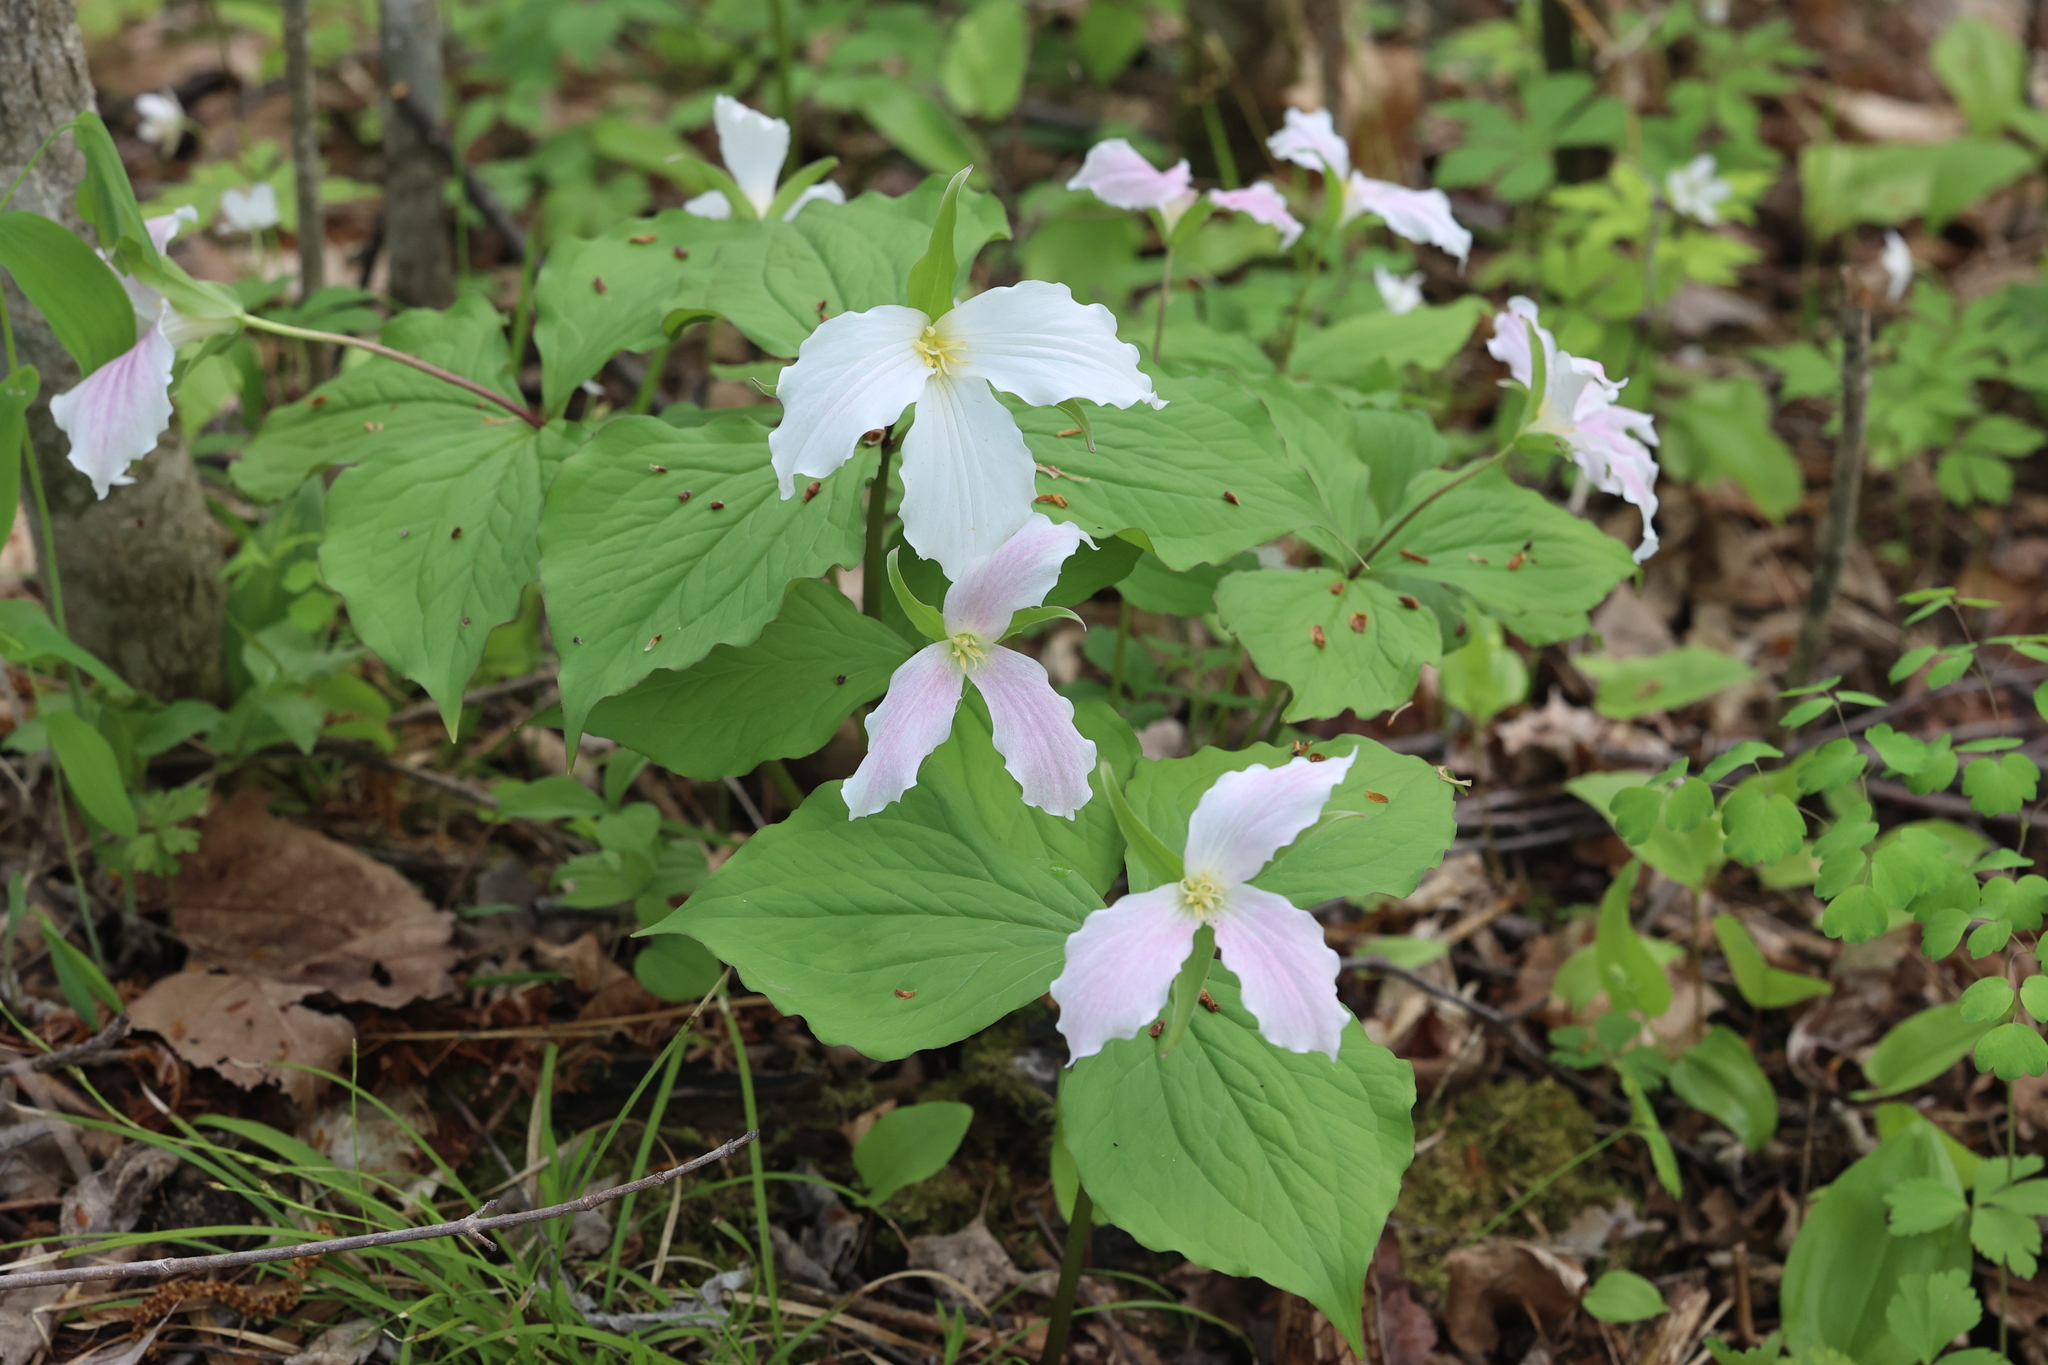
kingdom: Plantae
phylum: Tracheophyta
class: Liliopsida
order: Liliales
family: Melanthiaceae
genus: Trillium
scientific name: Trillium grandiflorum
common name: Great white trillium
